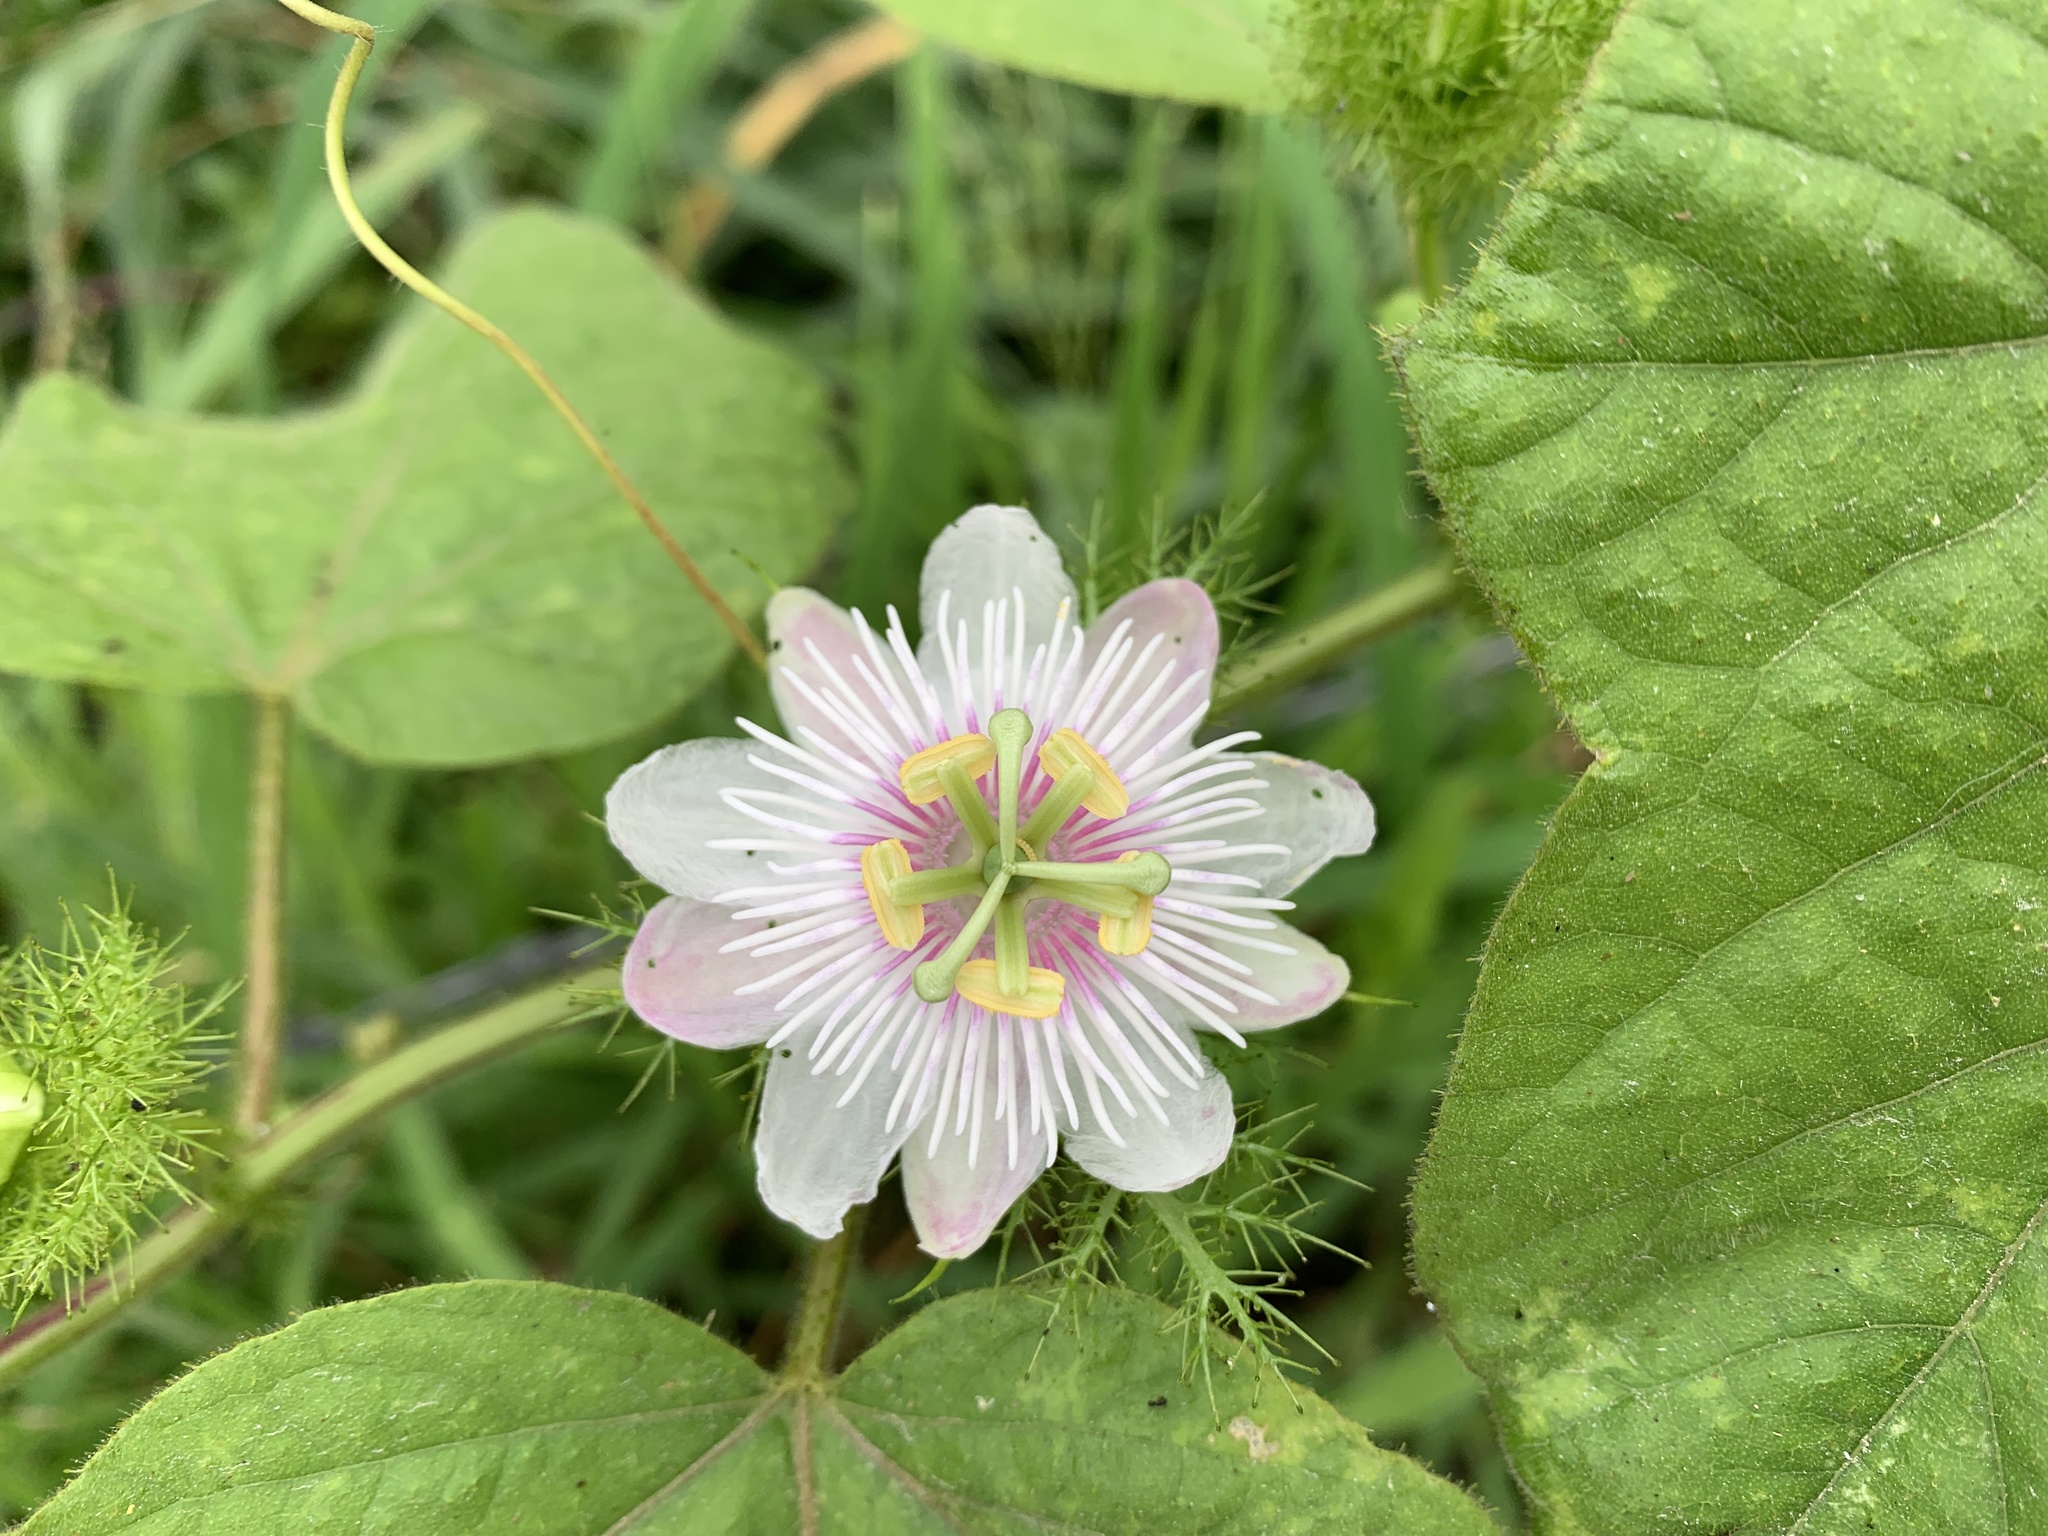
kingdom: Plantae
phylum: Tracheophyta
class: Magnoliopsida
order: Malpighiales
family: Passifloraceae
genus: Passiflora
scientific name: Passiflora foetida
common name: Fetid passionflower
